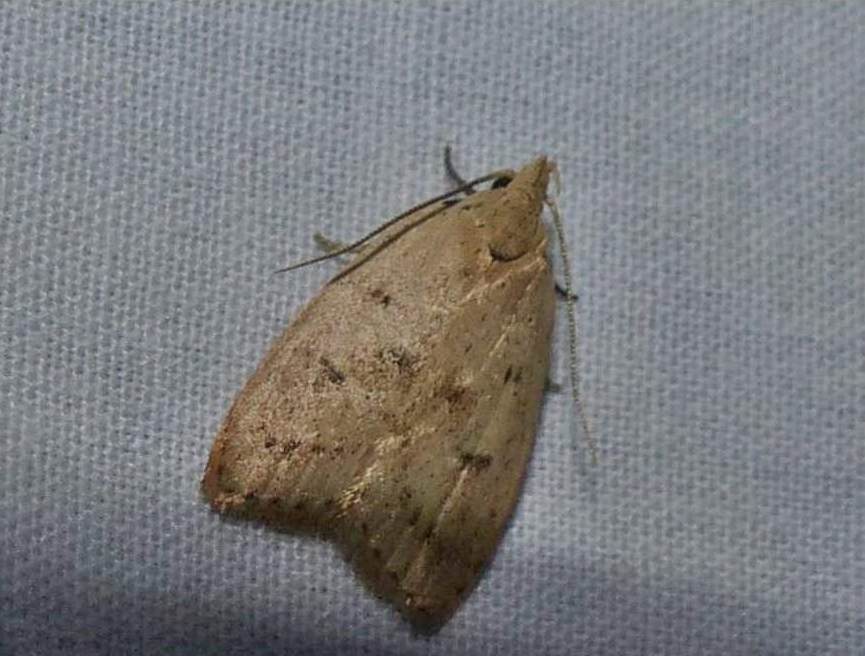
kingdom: Animalia
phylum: Arthropoda
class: Insecta
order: Lepidoptera
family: Peleopodidae
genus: Machimia
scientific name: Machimia tentoriferella
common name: Gold-striped leaftier moth
